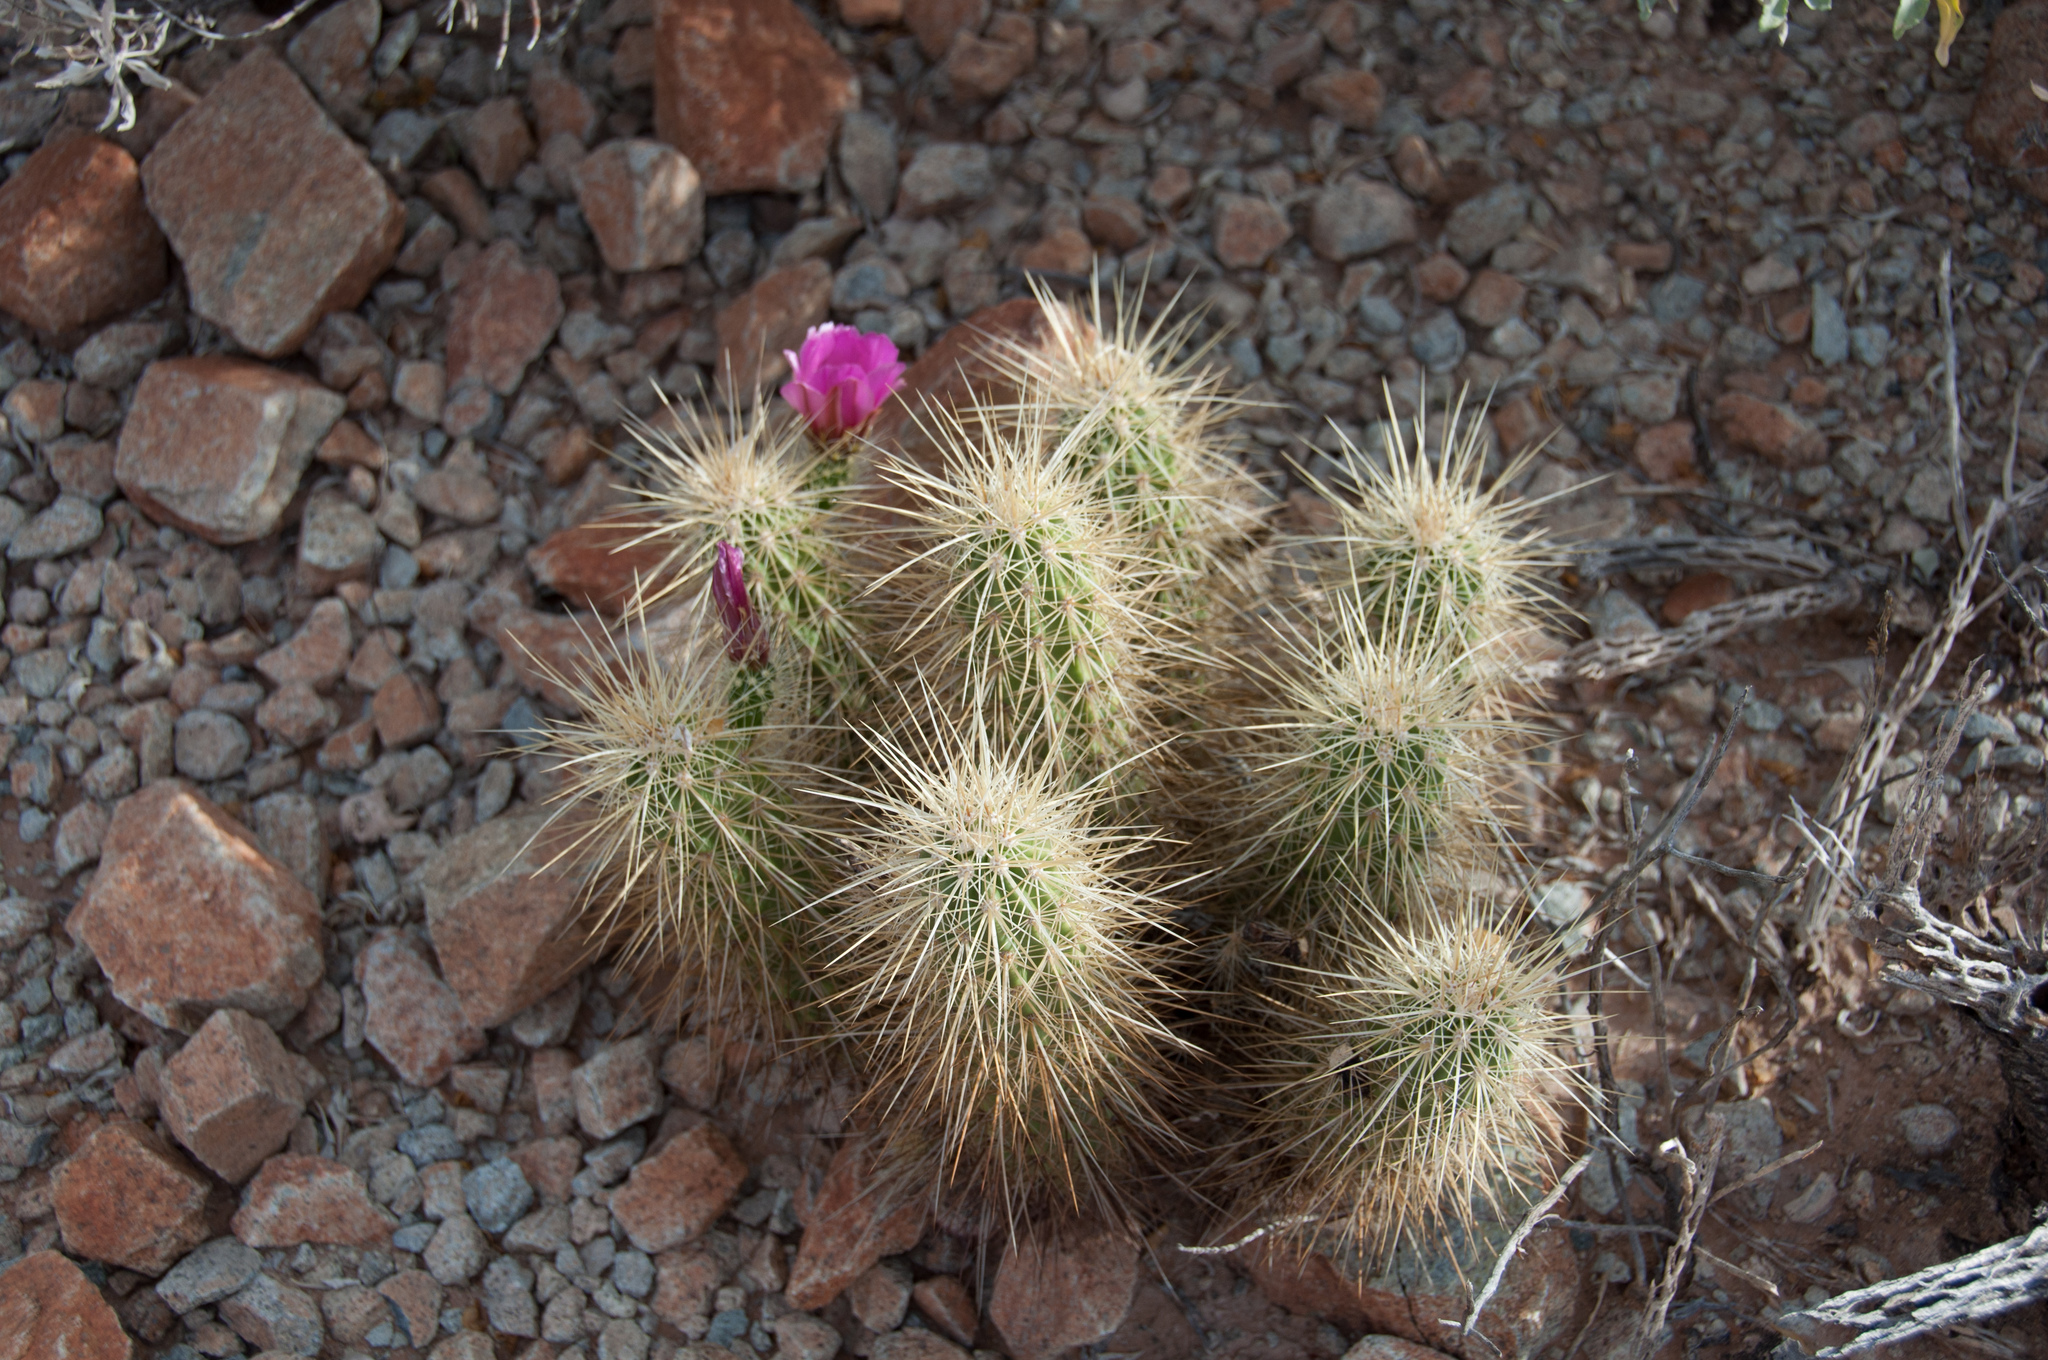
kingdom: Plantae
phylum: Tracheophyta
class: Magnoliopsida
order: Caryophyllales
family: Cactaceae
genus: Echinocereus
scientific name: Echinocereus nicholii
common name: Nichol's hedgehog cactus
